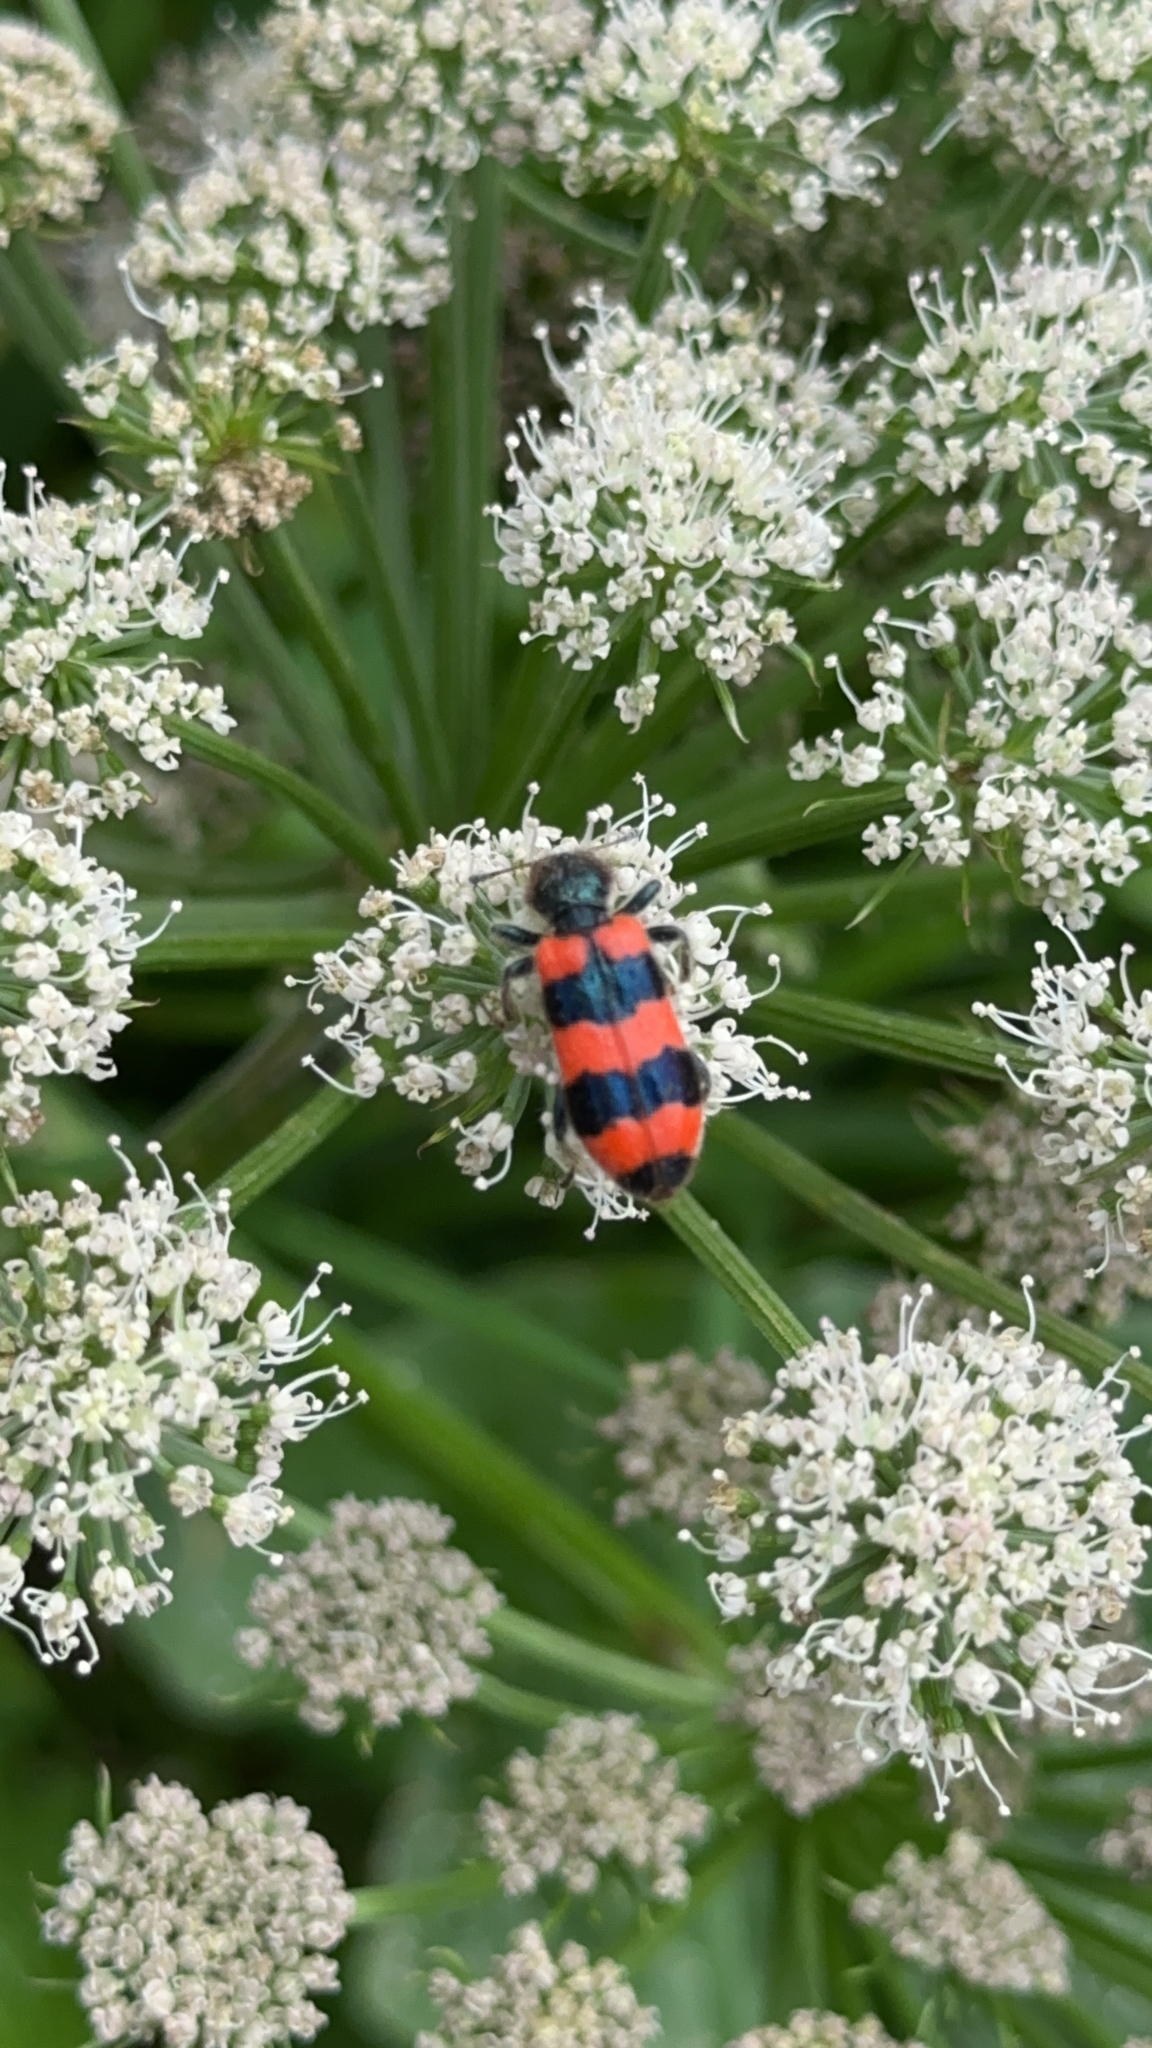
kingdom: Animalia
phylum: Arthropoda
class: Insecta
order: Coleoptera
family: Cleridae
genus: Trichodes
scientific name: Trichodes apiarius
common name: Bee-eating beetle
